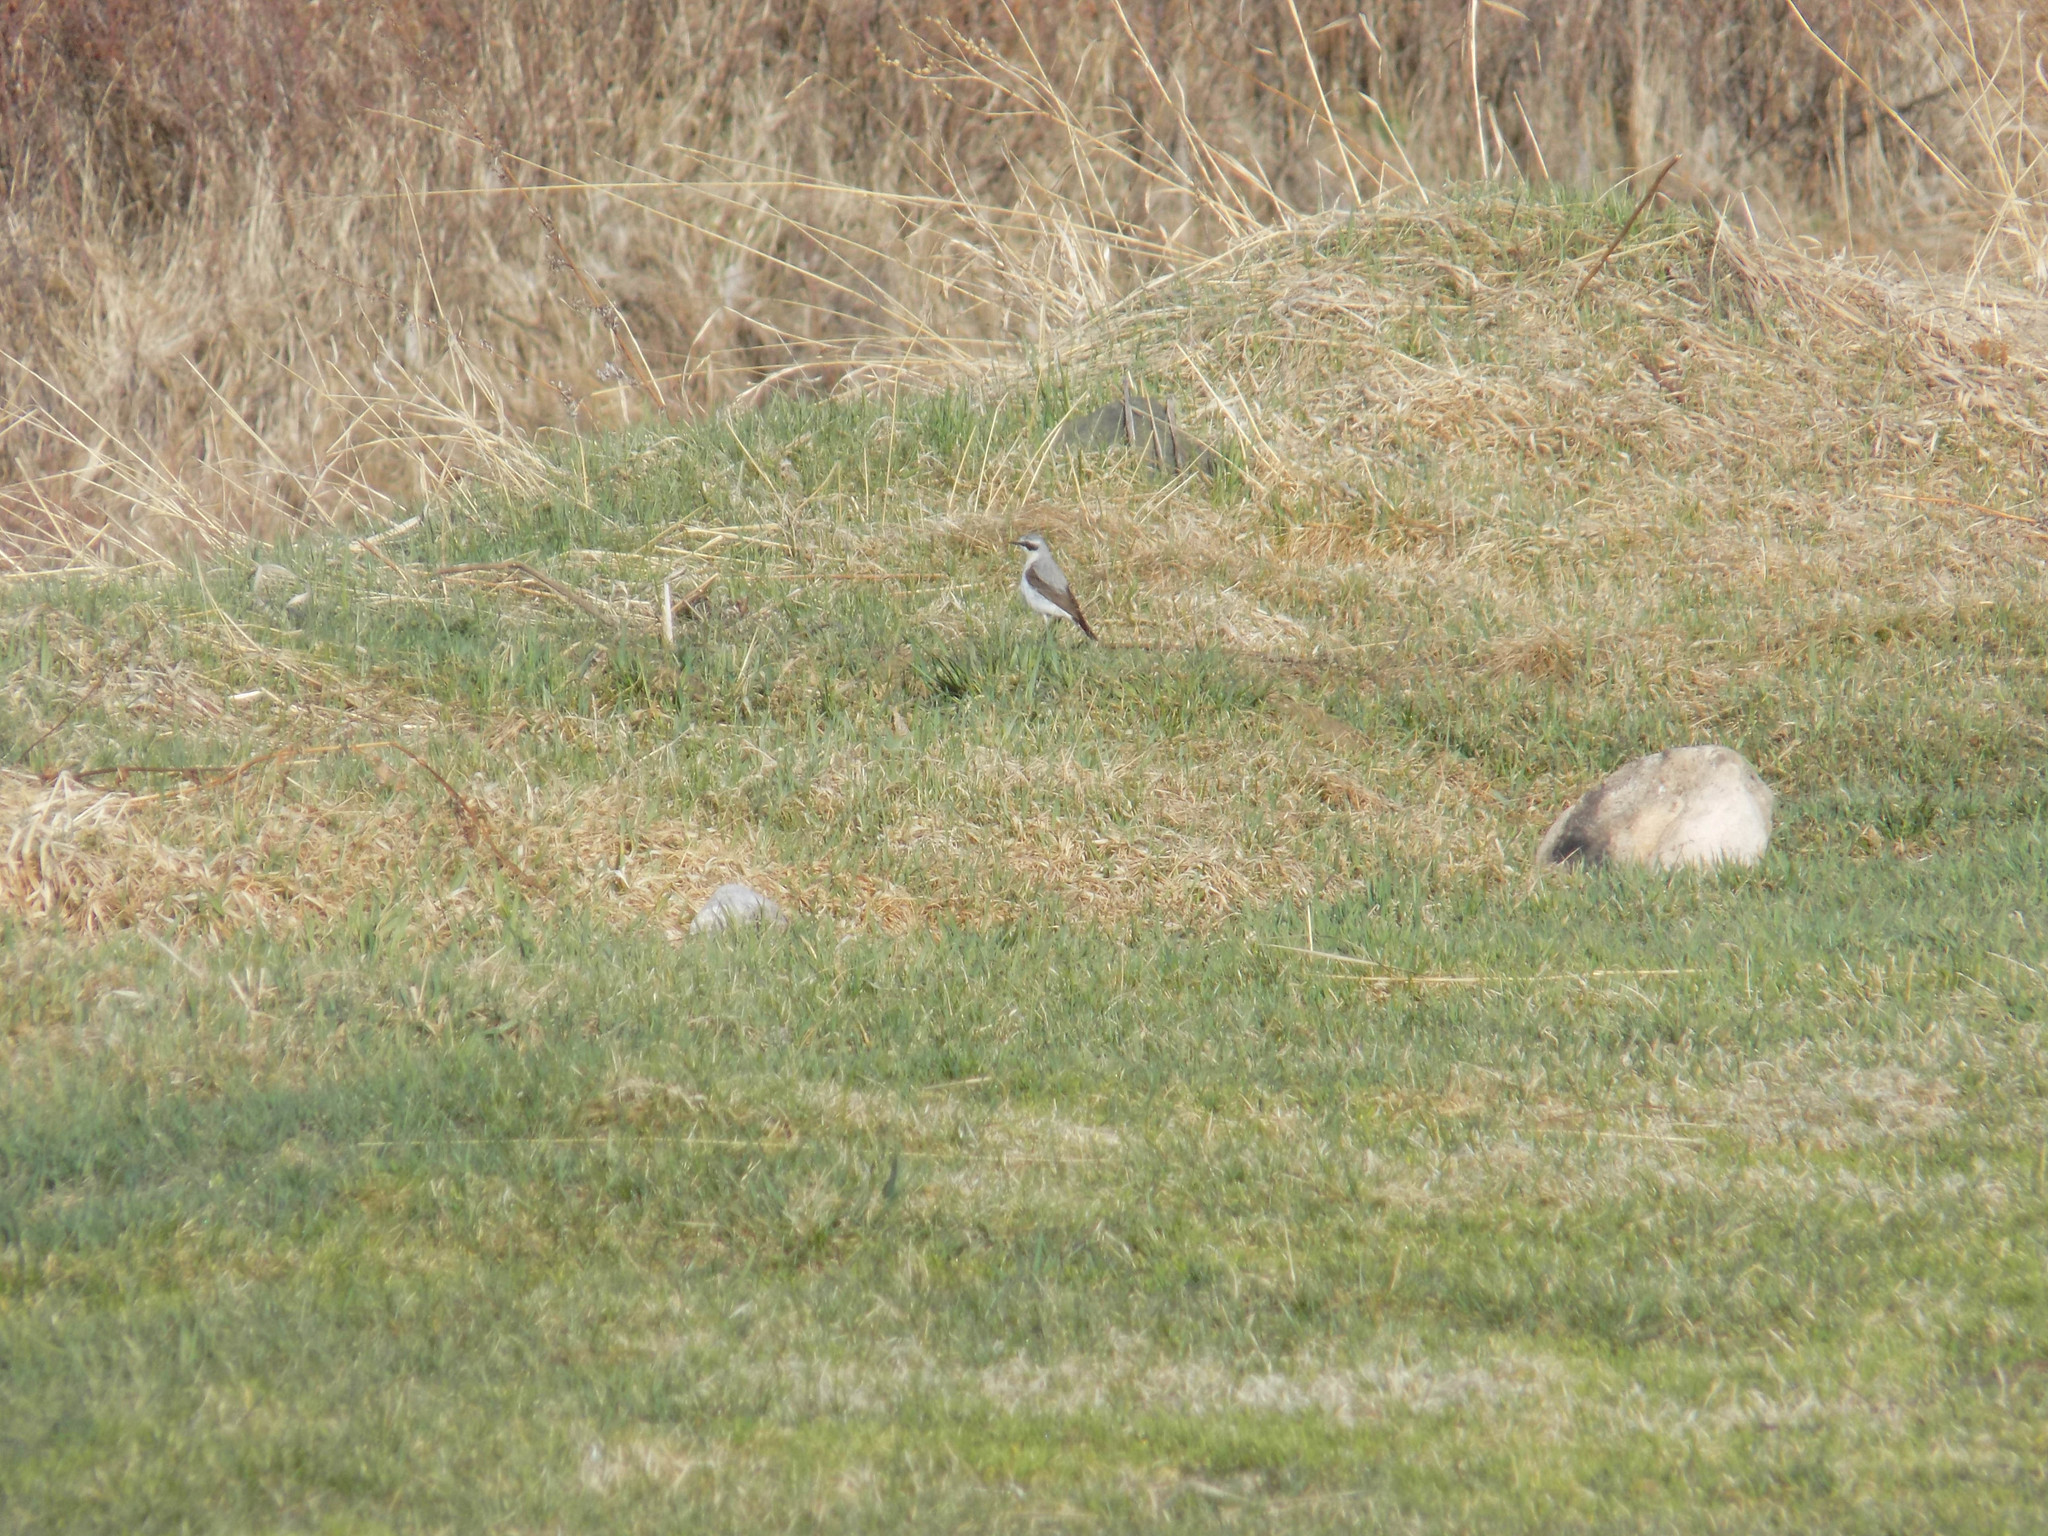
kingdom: Animalia
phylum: Chordata
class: Aves
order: Passeriformes
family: Muscicapidae
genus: Oenanthe
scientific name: Oenanthe oenanthe
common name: Northern wheatear
